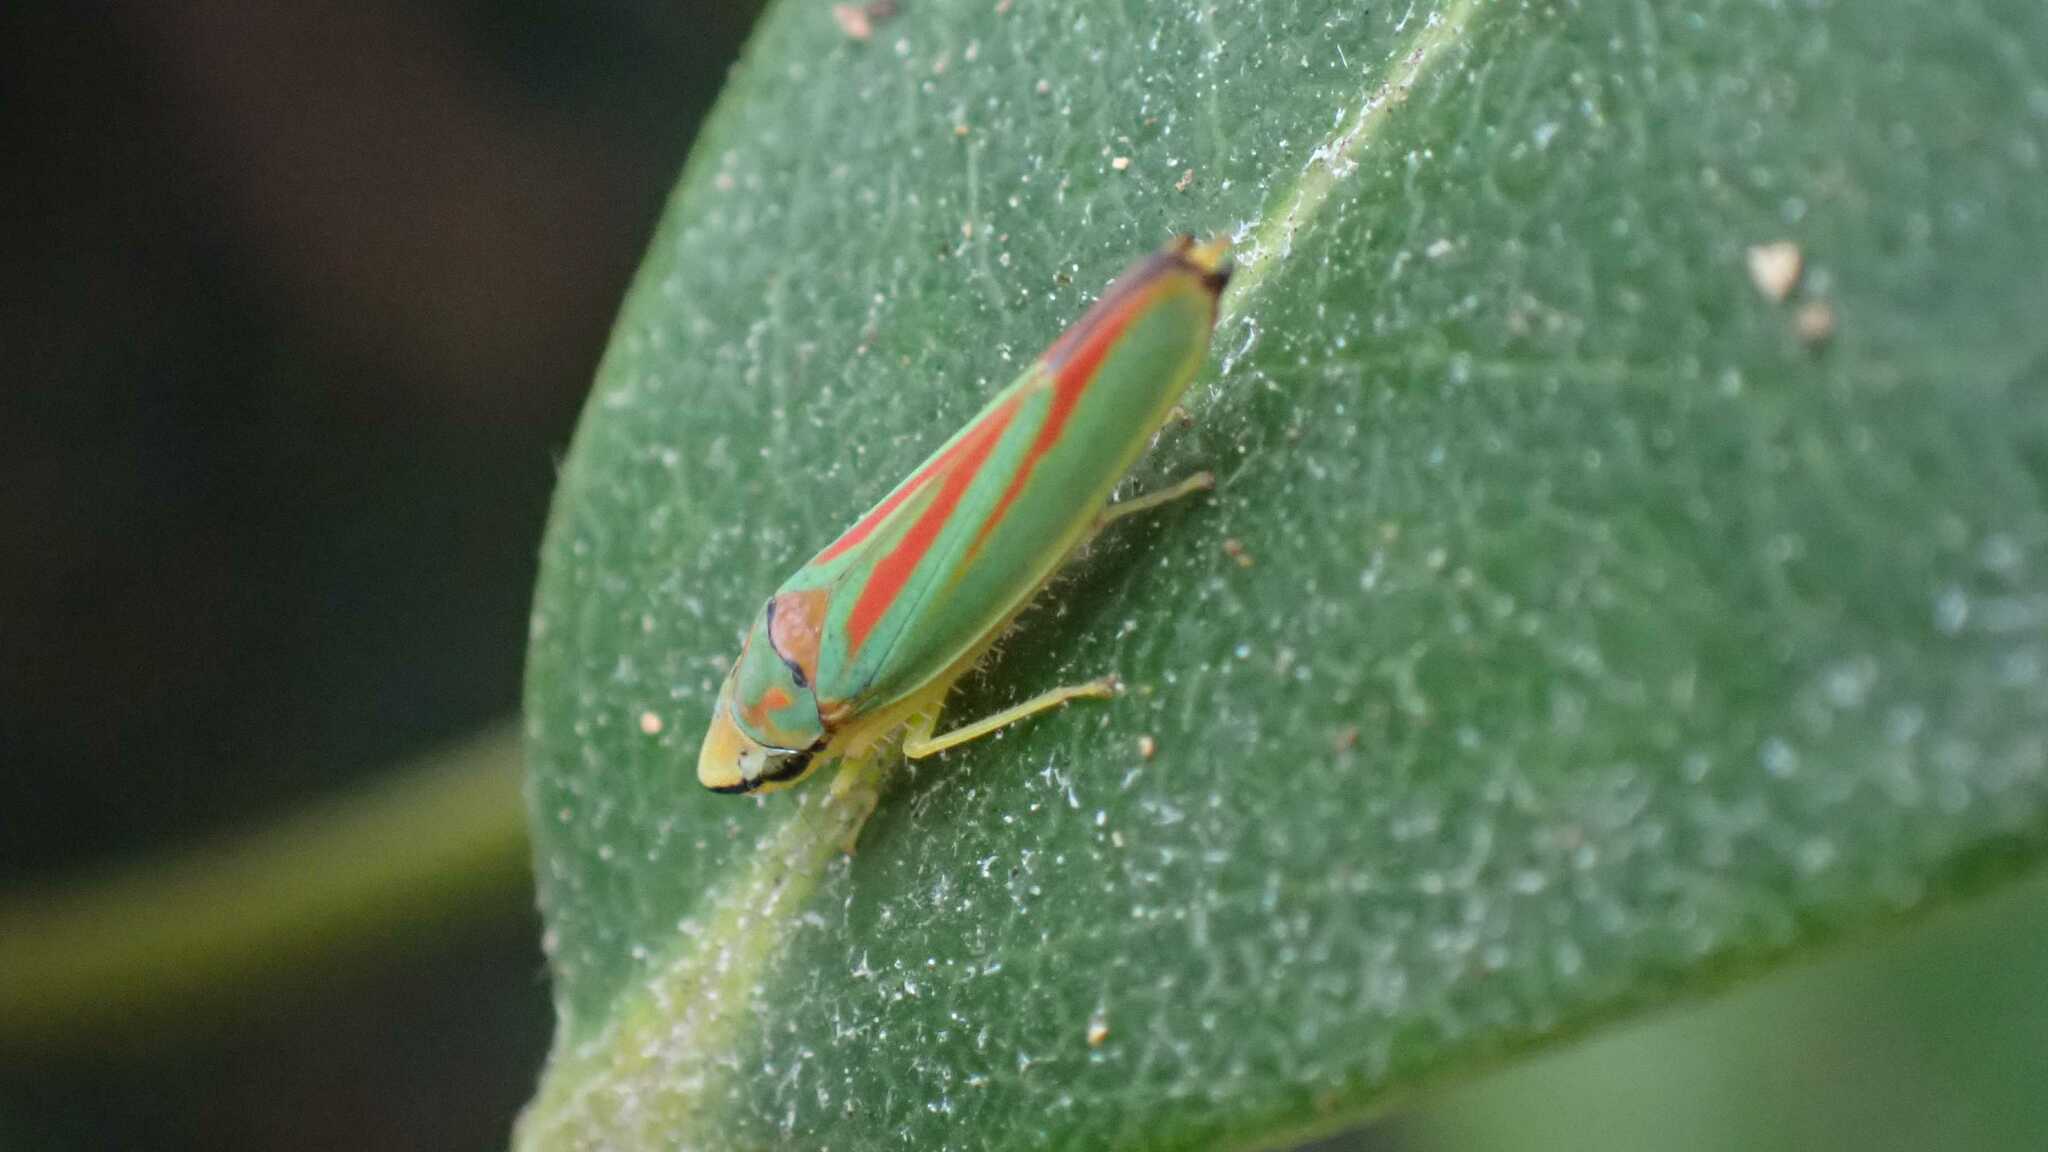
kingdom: Animalia
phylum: Arthropoda
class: Insecta
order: Hemiptera
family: Cicadellidae
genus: Graphocephala
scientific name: Graphocephala fennahi
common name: Rhododendron leafhopper
